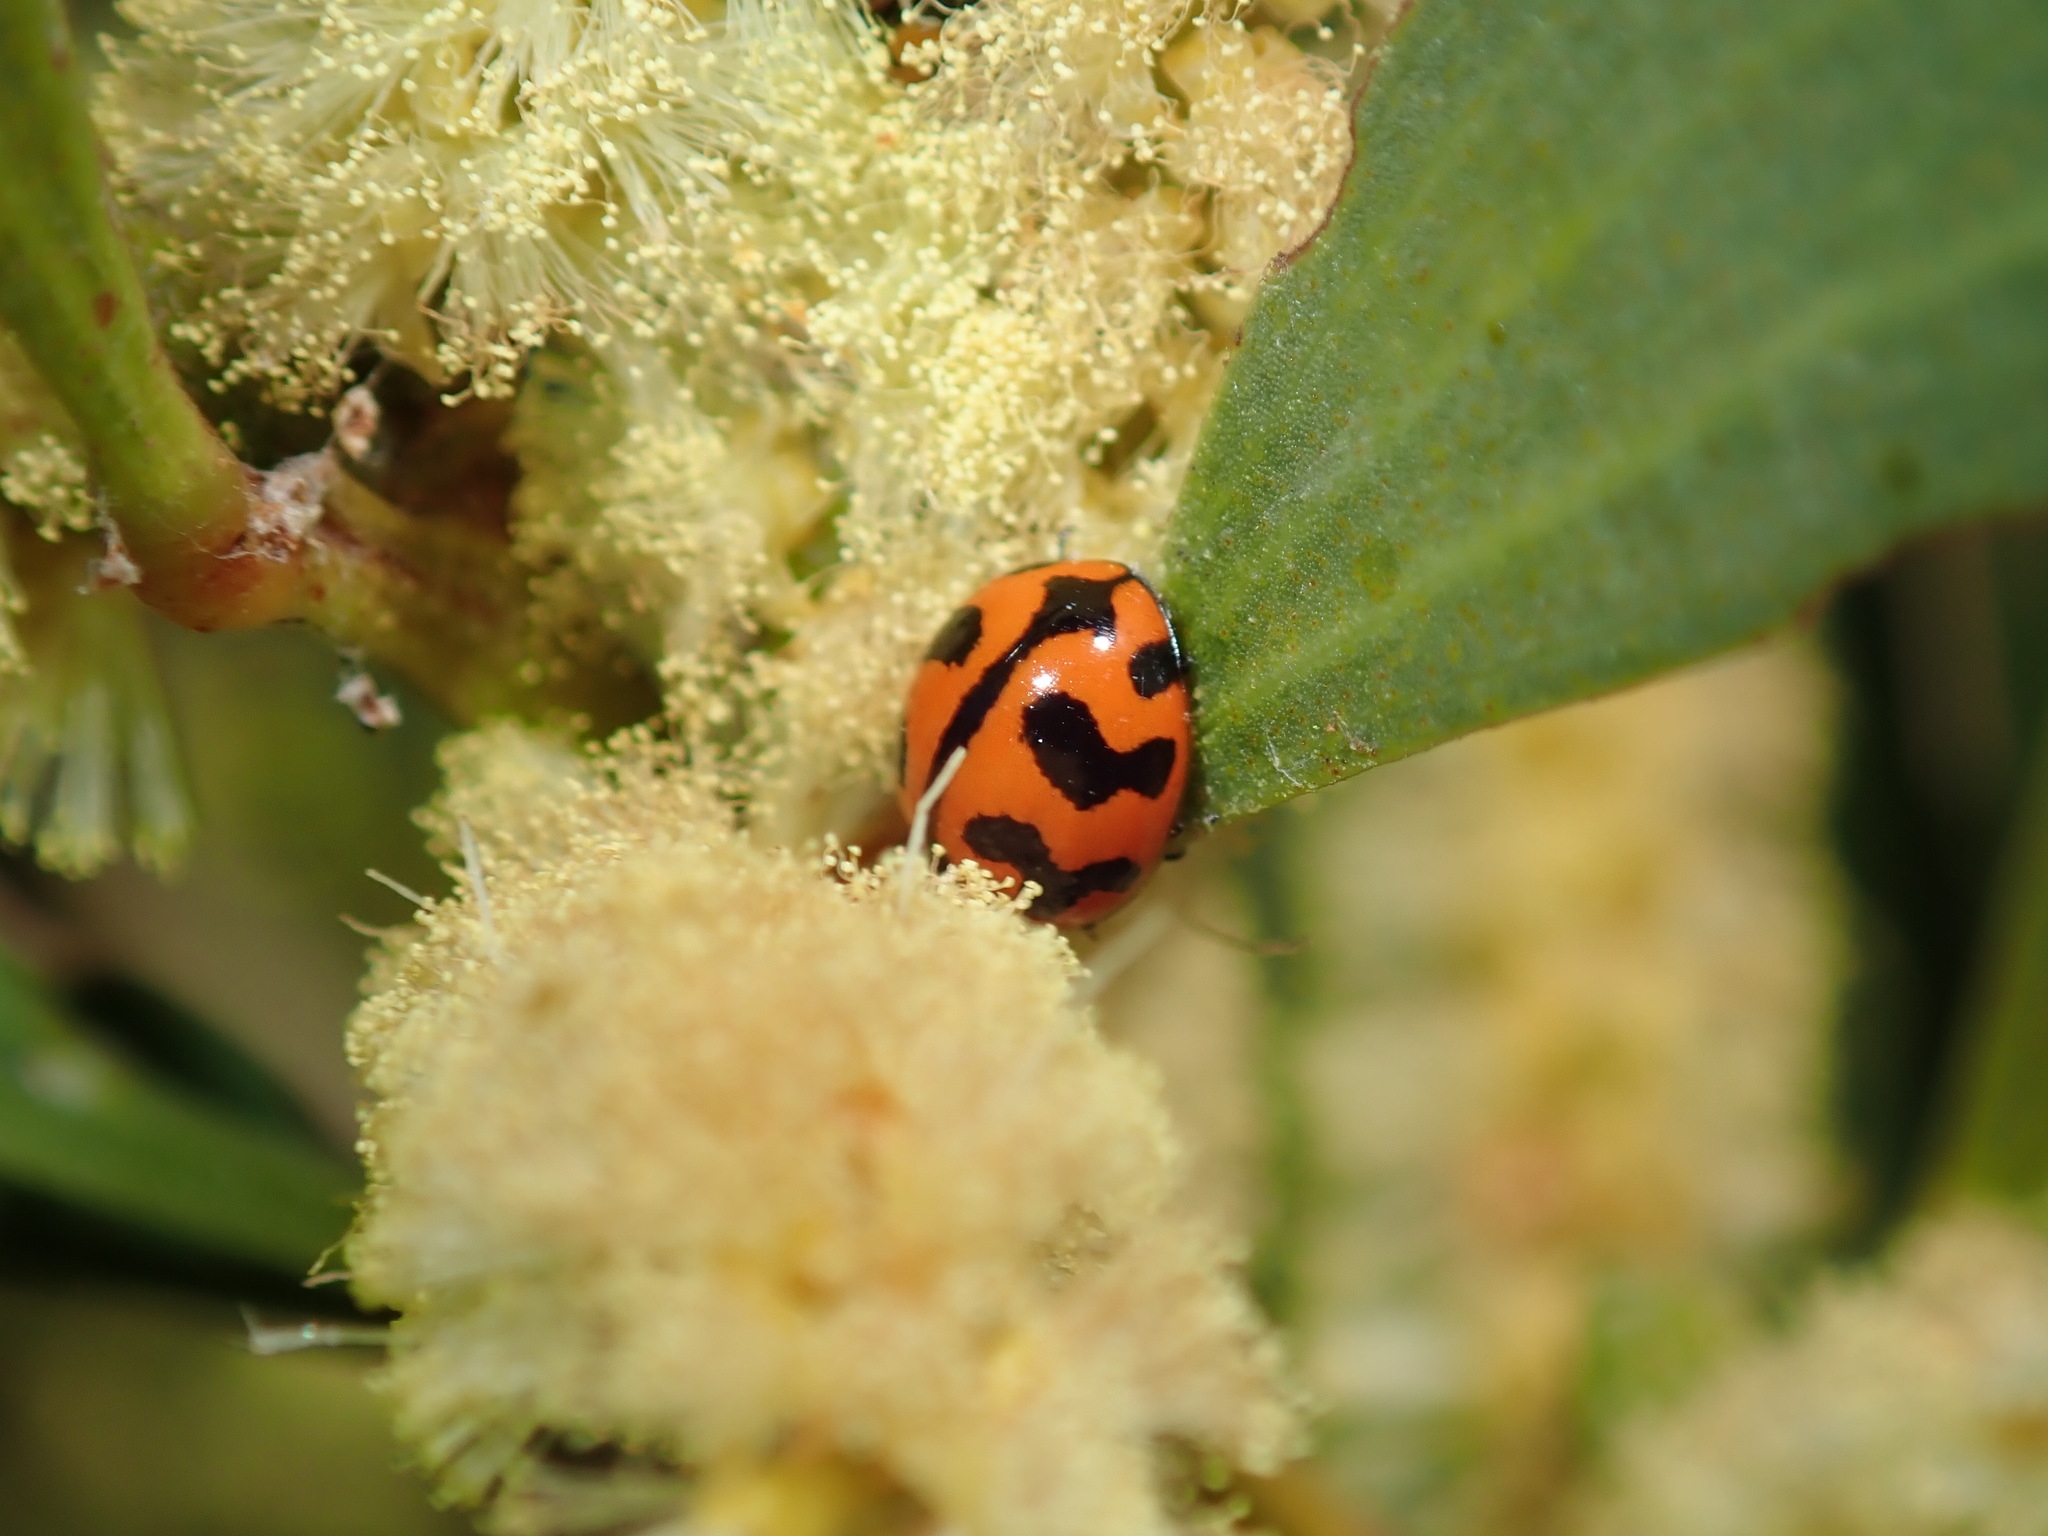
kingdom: Animalia
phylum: Arthropoda
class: Insecta
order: Coleoptera
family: Coccinellidae
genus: Coccinella
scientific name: Coccinella transversalis
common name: Transverse lady beetle
